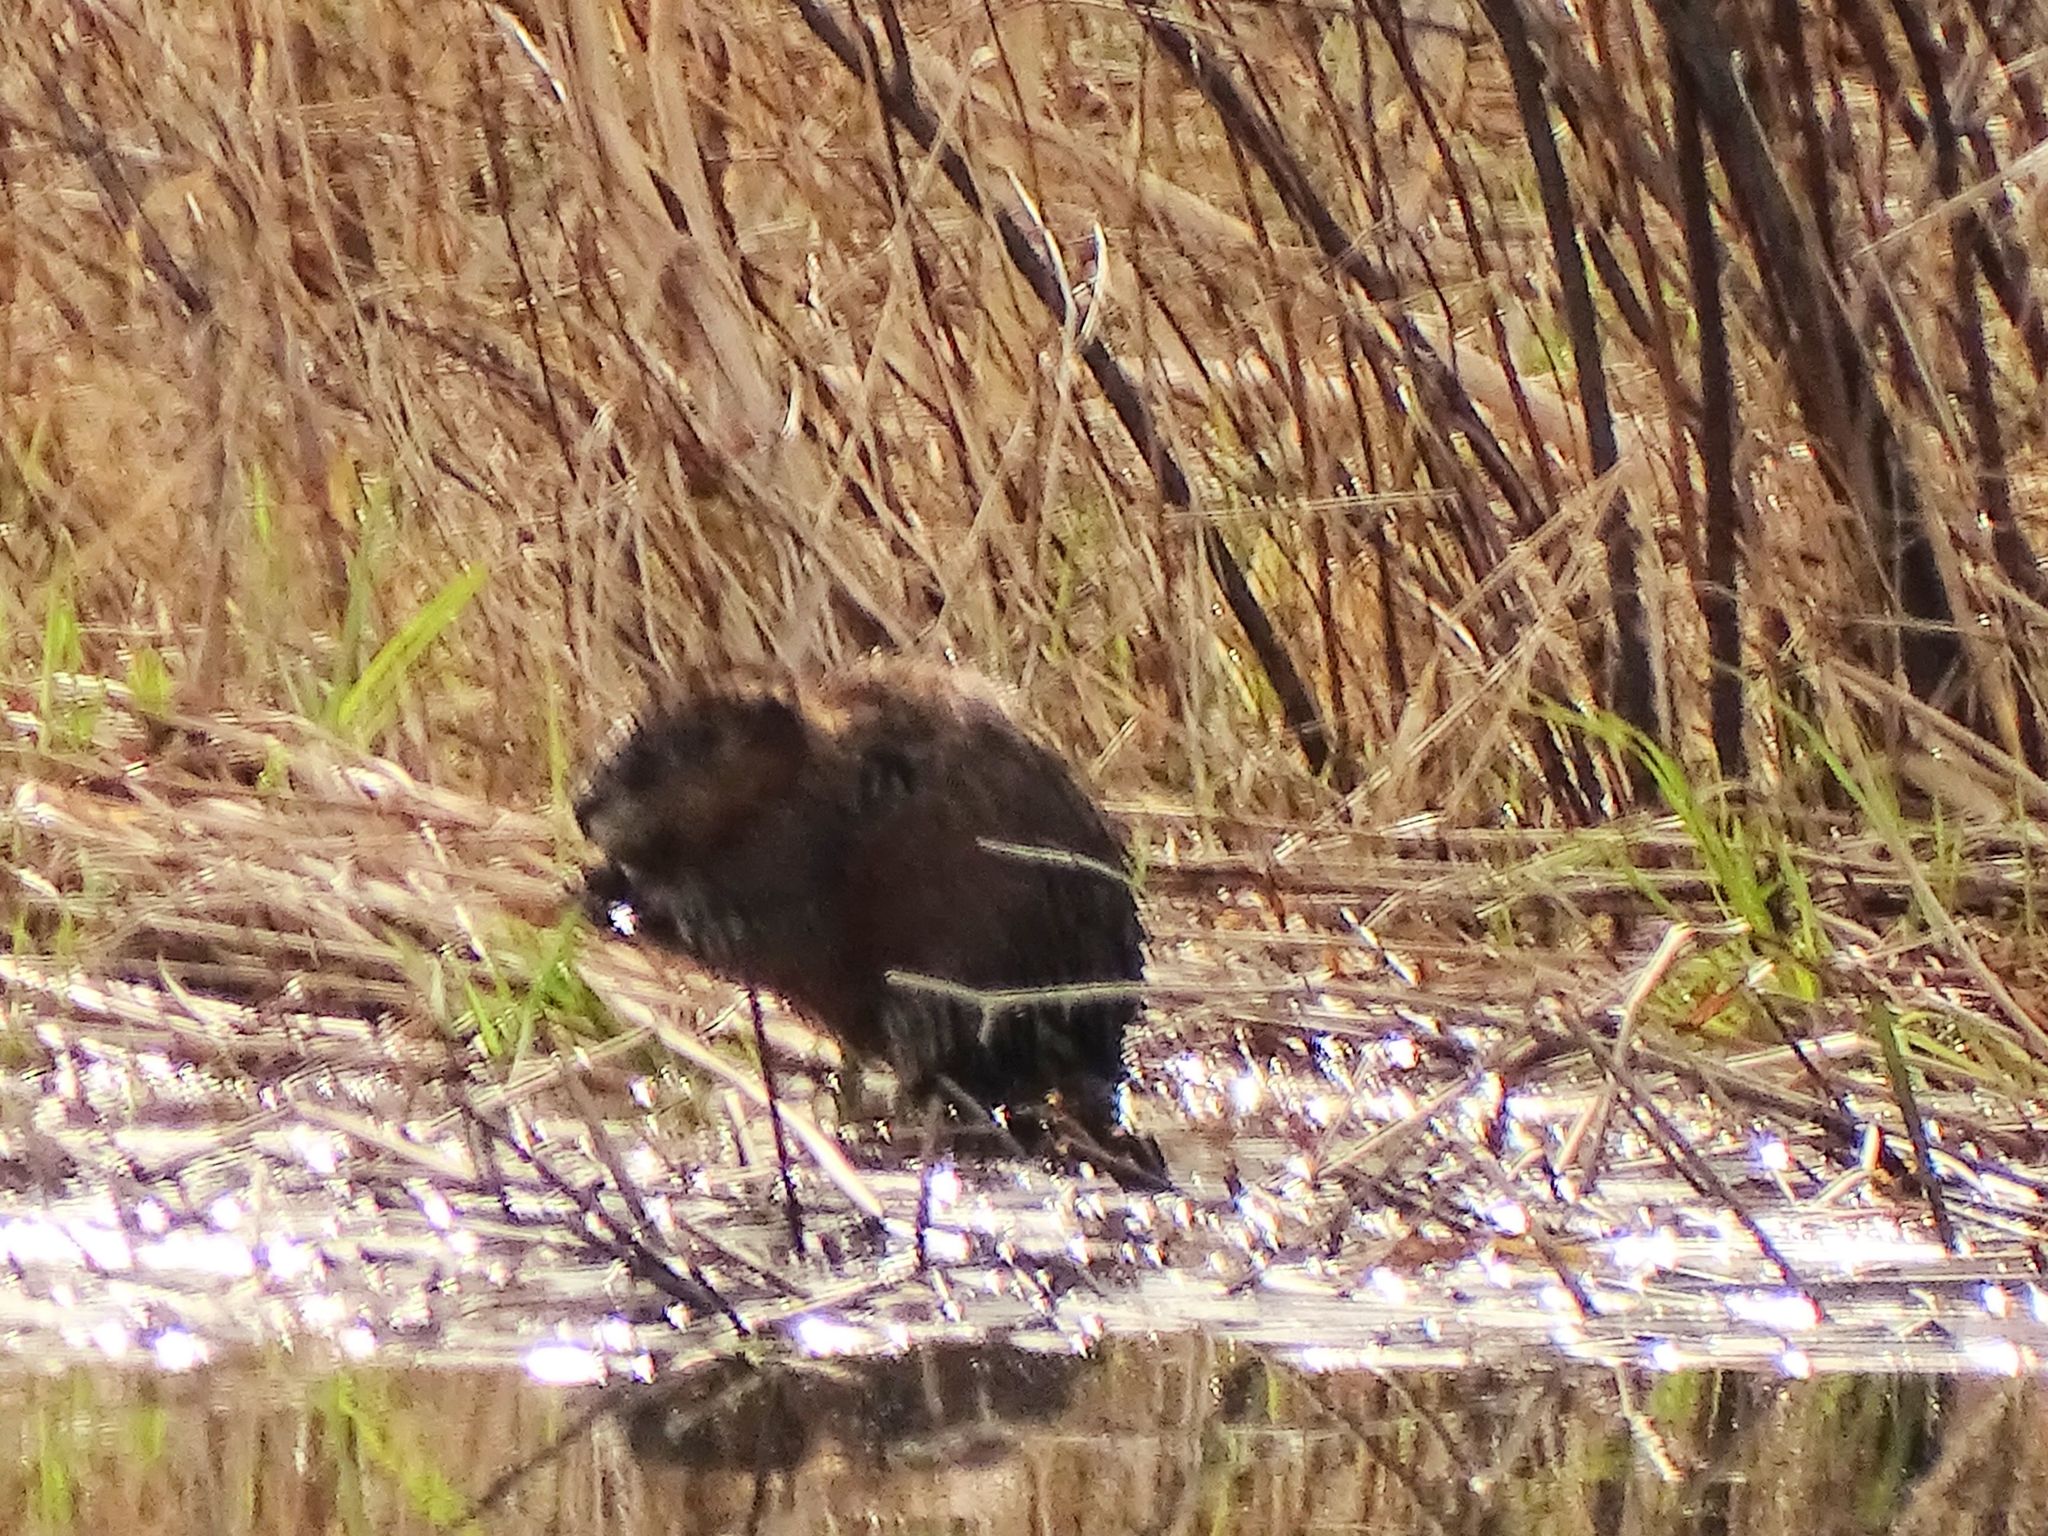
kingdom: Animalia
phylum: Chordata
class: Mammalia
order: Rodentia
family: Cricetidae
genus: Ondatra
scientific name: Ondatra zibethicus
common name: Muskrat
